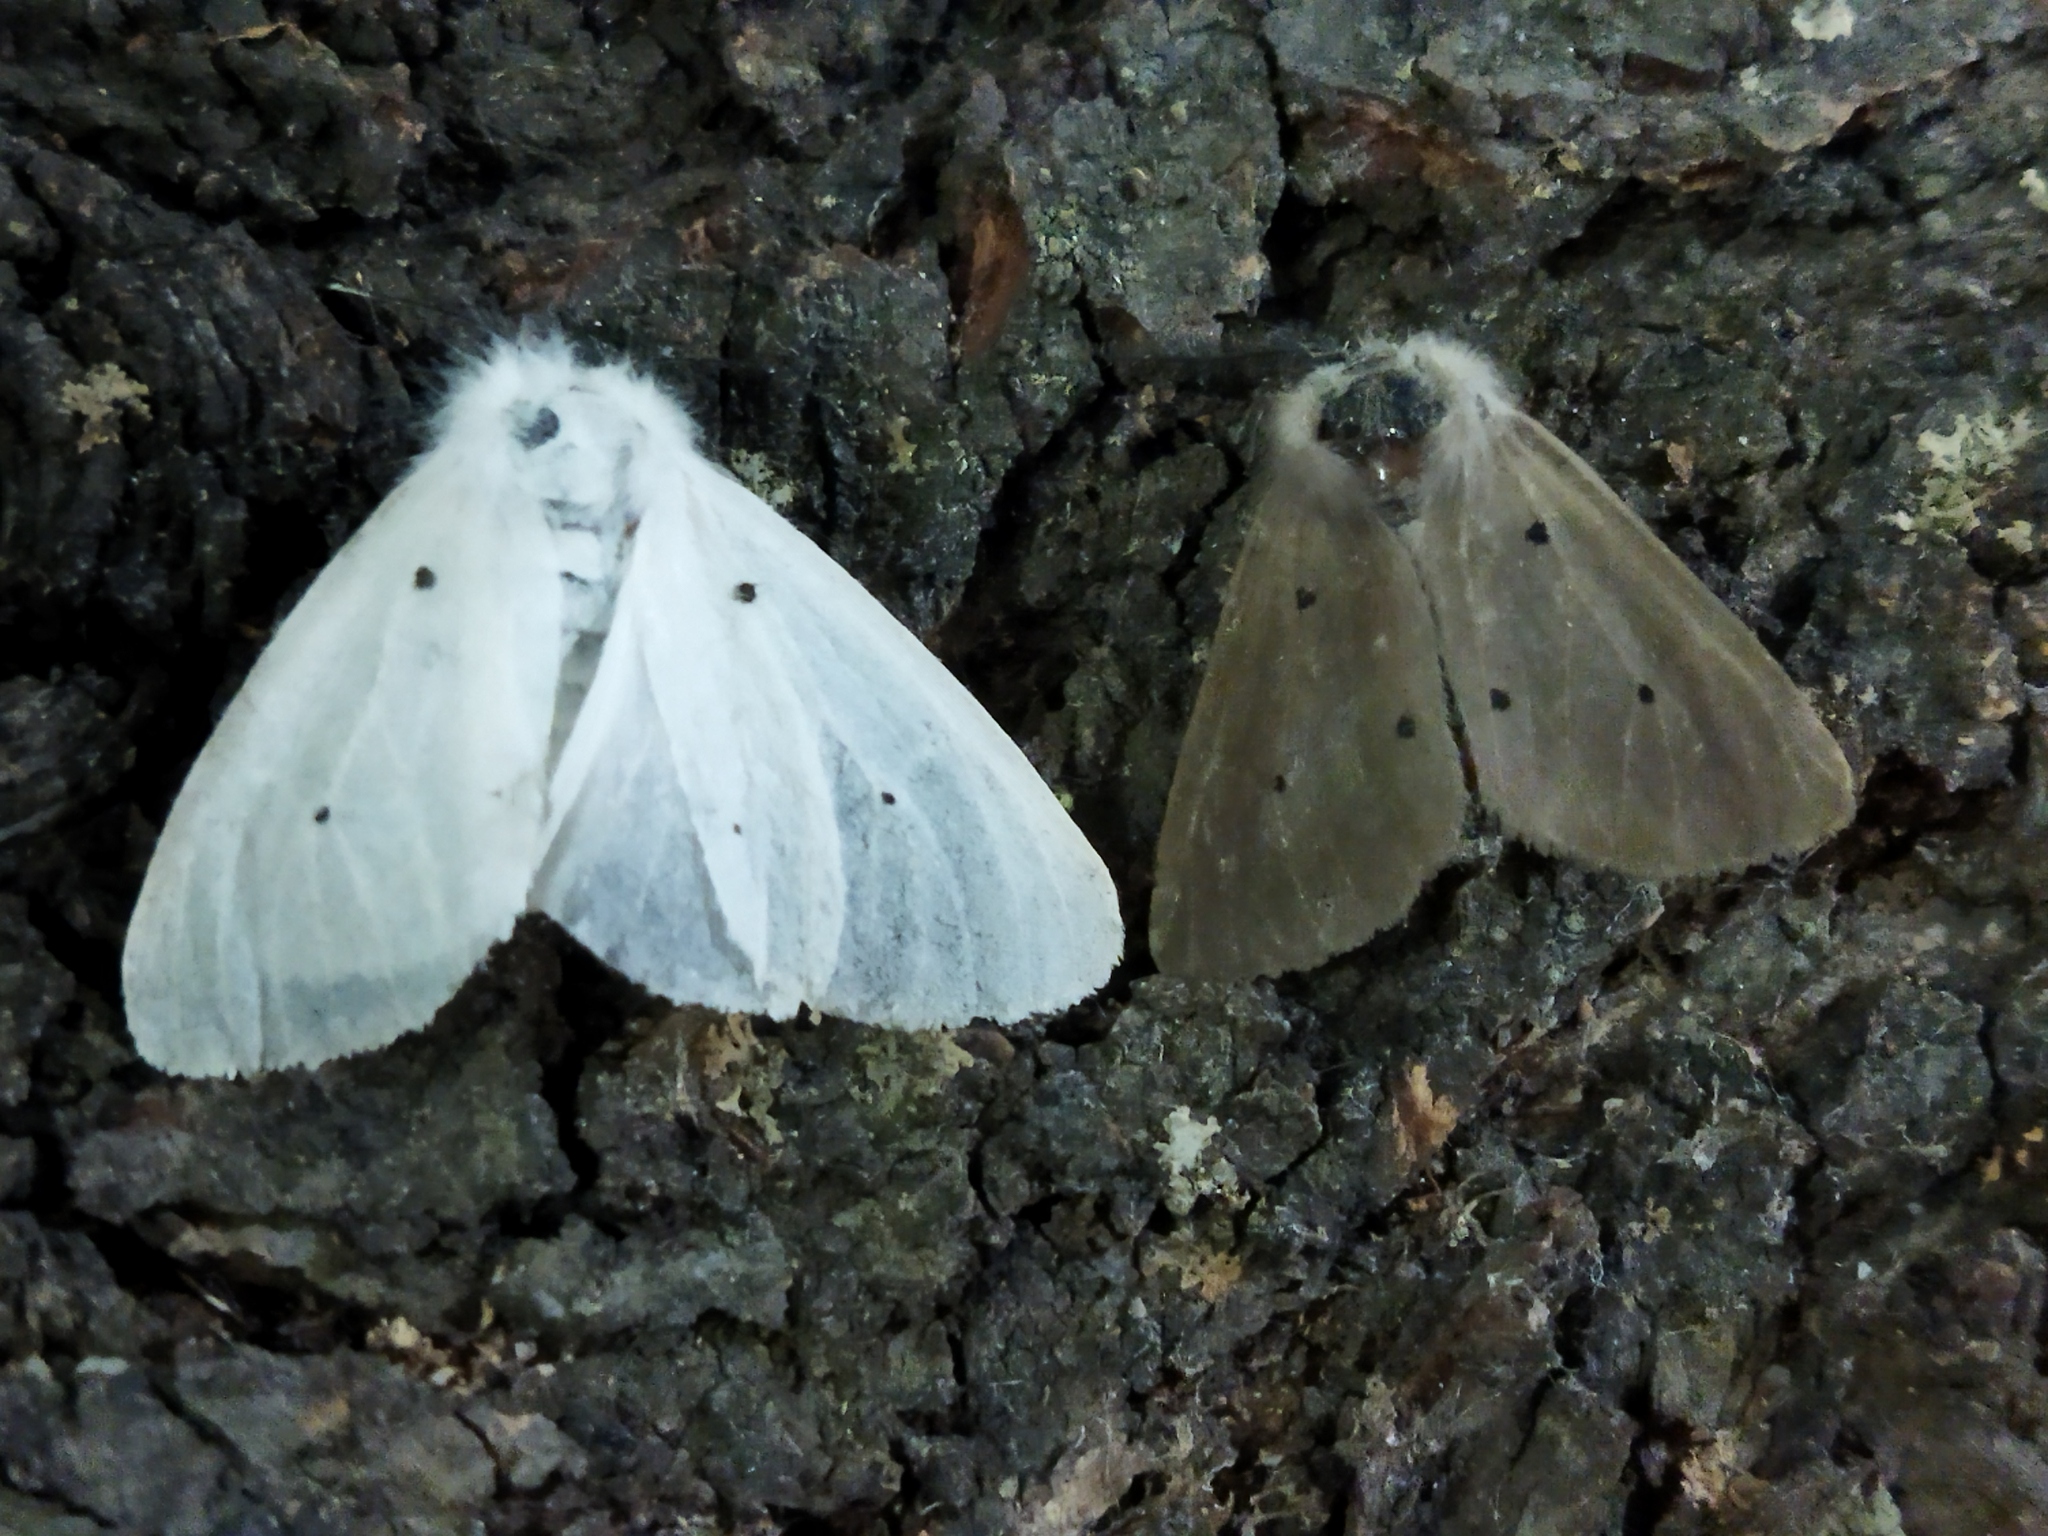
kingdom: Animalia
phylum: Arthropoda
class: Insecta
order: Lepidoptera
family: Erebidae
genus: Diaphora
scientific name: Diaphora mendica
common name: Muslin moth
